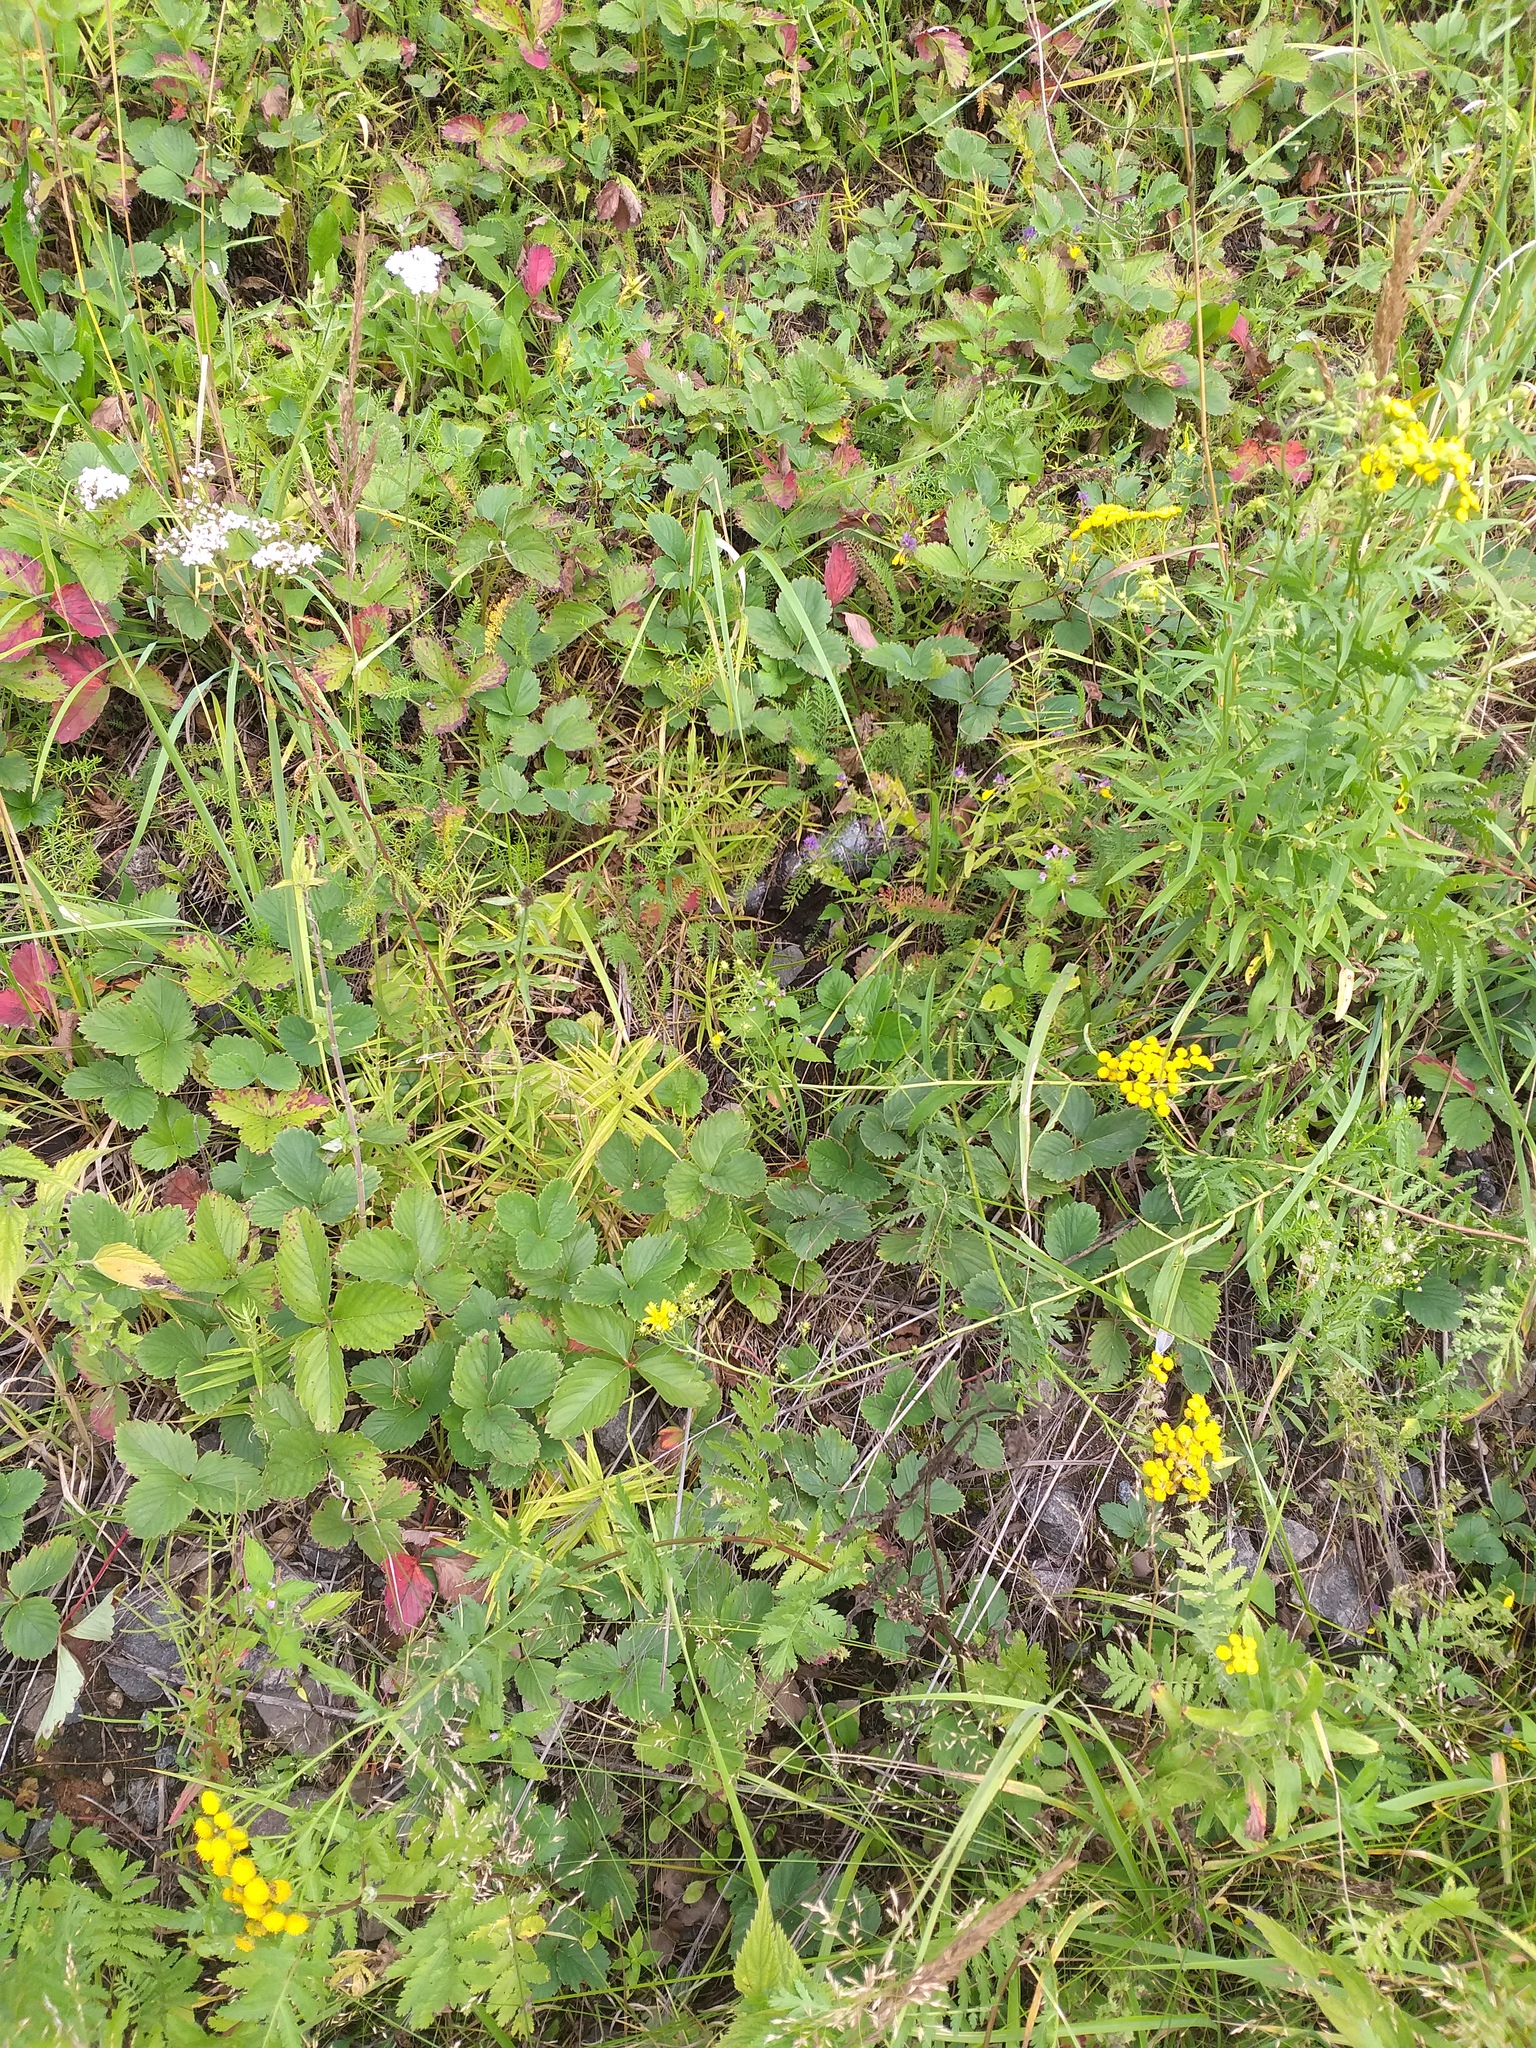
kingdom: Plantae
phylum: Tracheophyta
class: Magnoliopsida
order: Rosales
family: Rosaceae
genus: Fragaria
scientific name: Fragaria ananassa
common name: Garden strawberry
